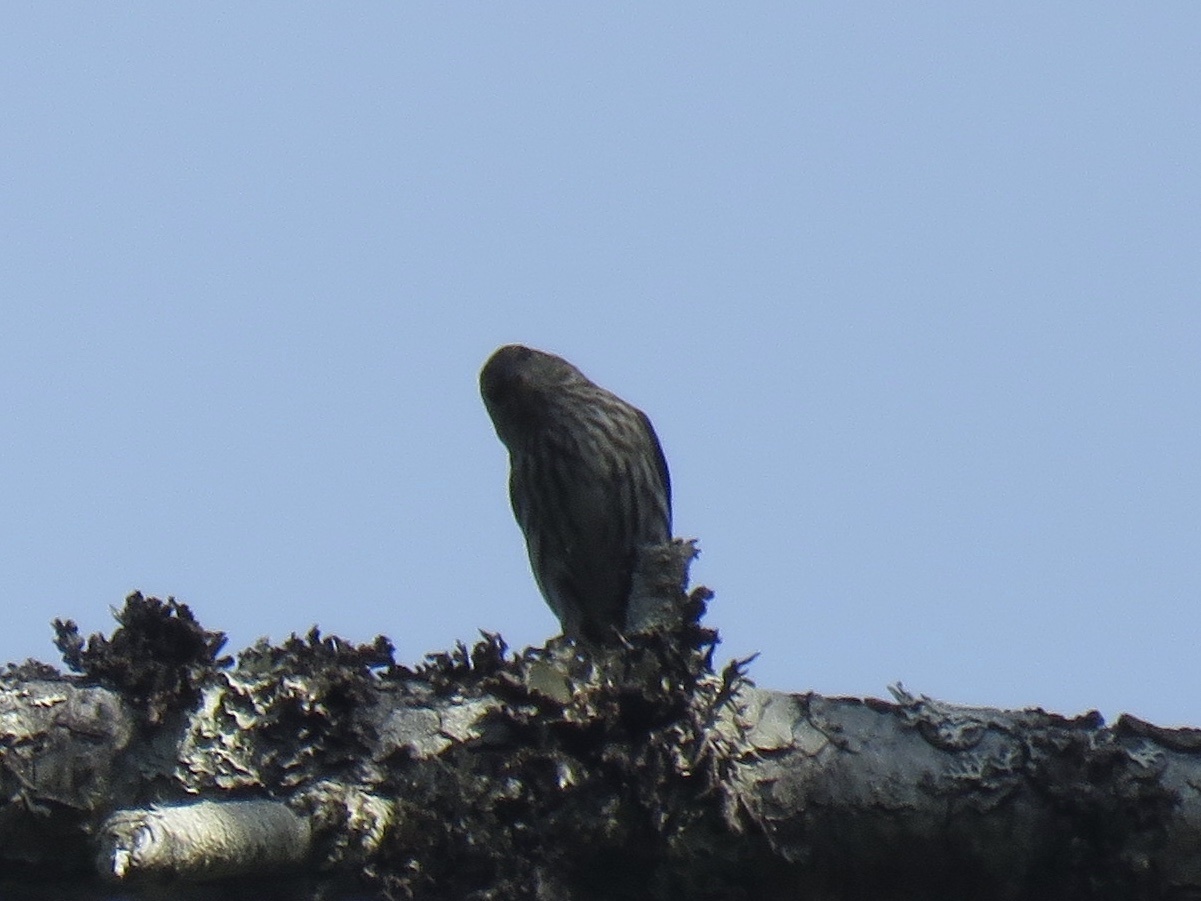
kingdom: Animalia
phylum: Chordata
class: Aves
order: Passeriformes
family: Fringillidae
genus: Spinus
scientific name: Spinus pinus
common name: Pine siskin
